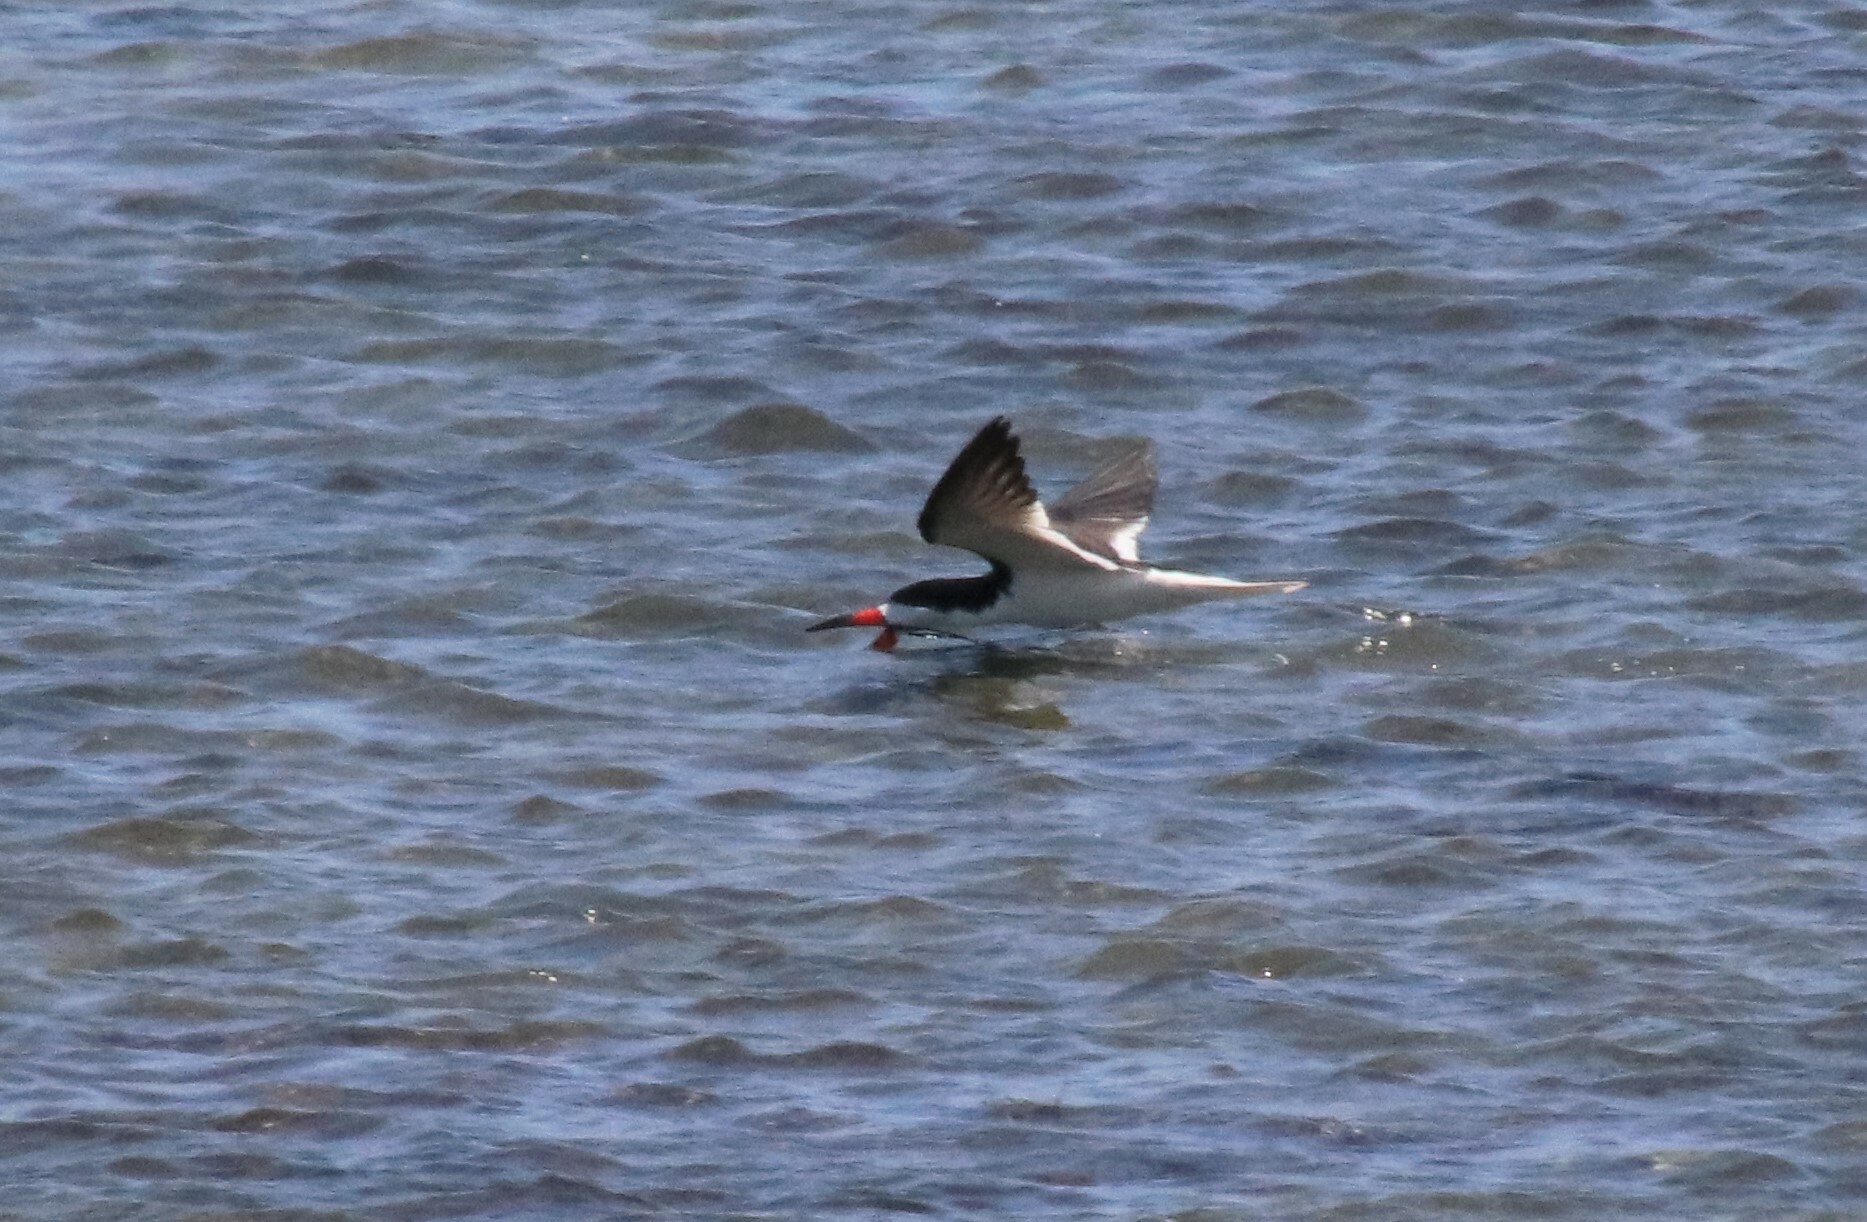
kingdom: Animalia
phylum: Chordata
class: Aves
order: Charadriiformes
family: Laridae
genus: Rynchops
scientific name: Rynchops niger
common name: Black skimmer
